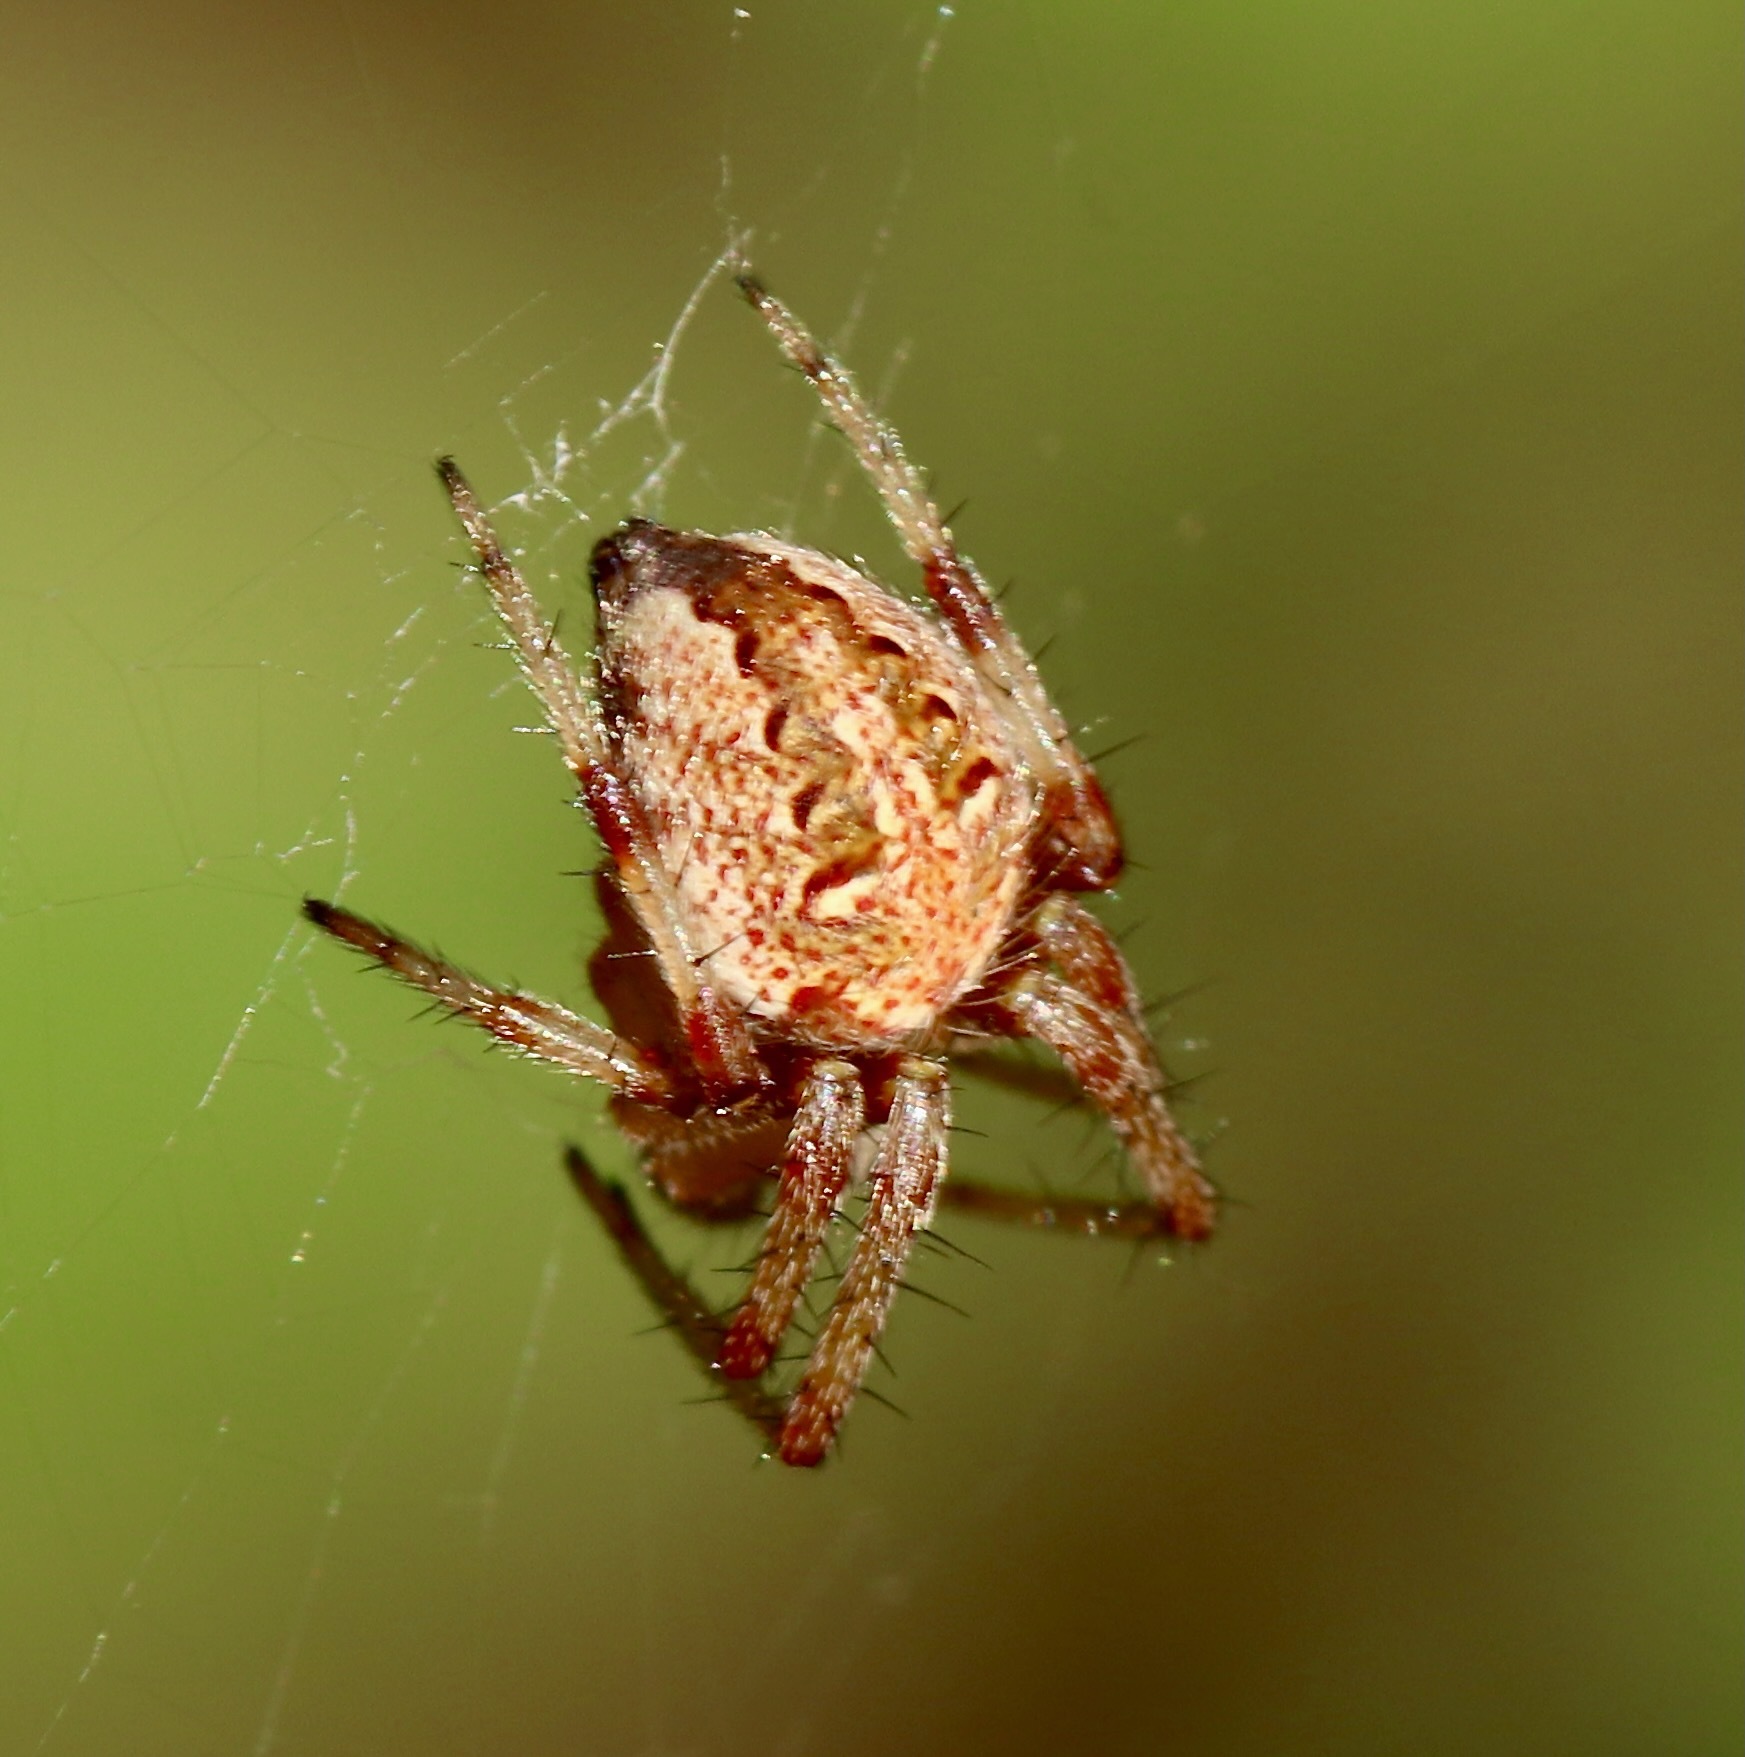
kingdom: Animalia
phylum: Arthropoda
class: Arachnida
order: Araneae
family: Araneidae
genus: Neoscona
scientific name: Neoscona arabesca
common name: Orb weavers
